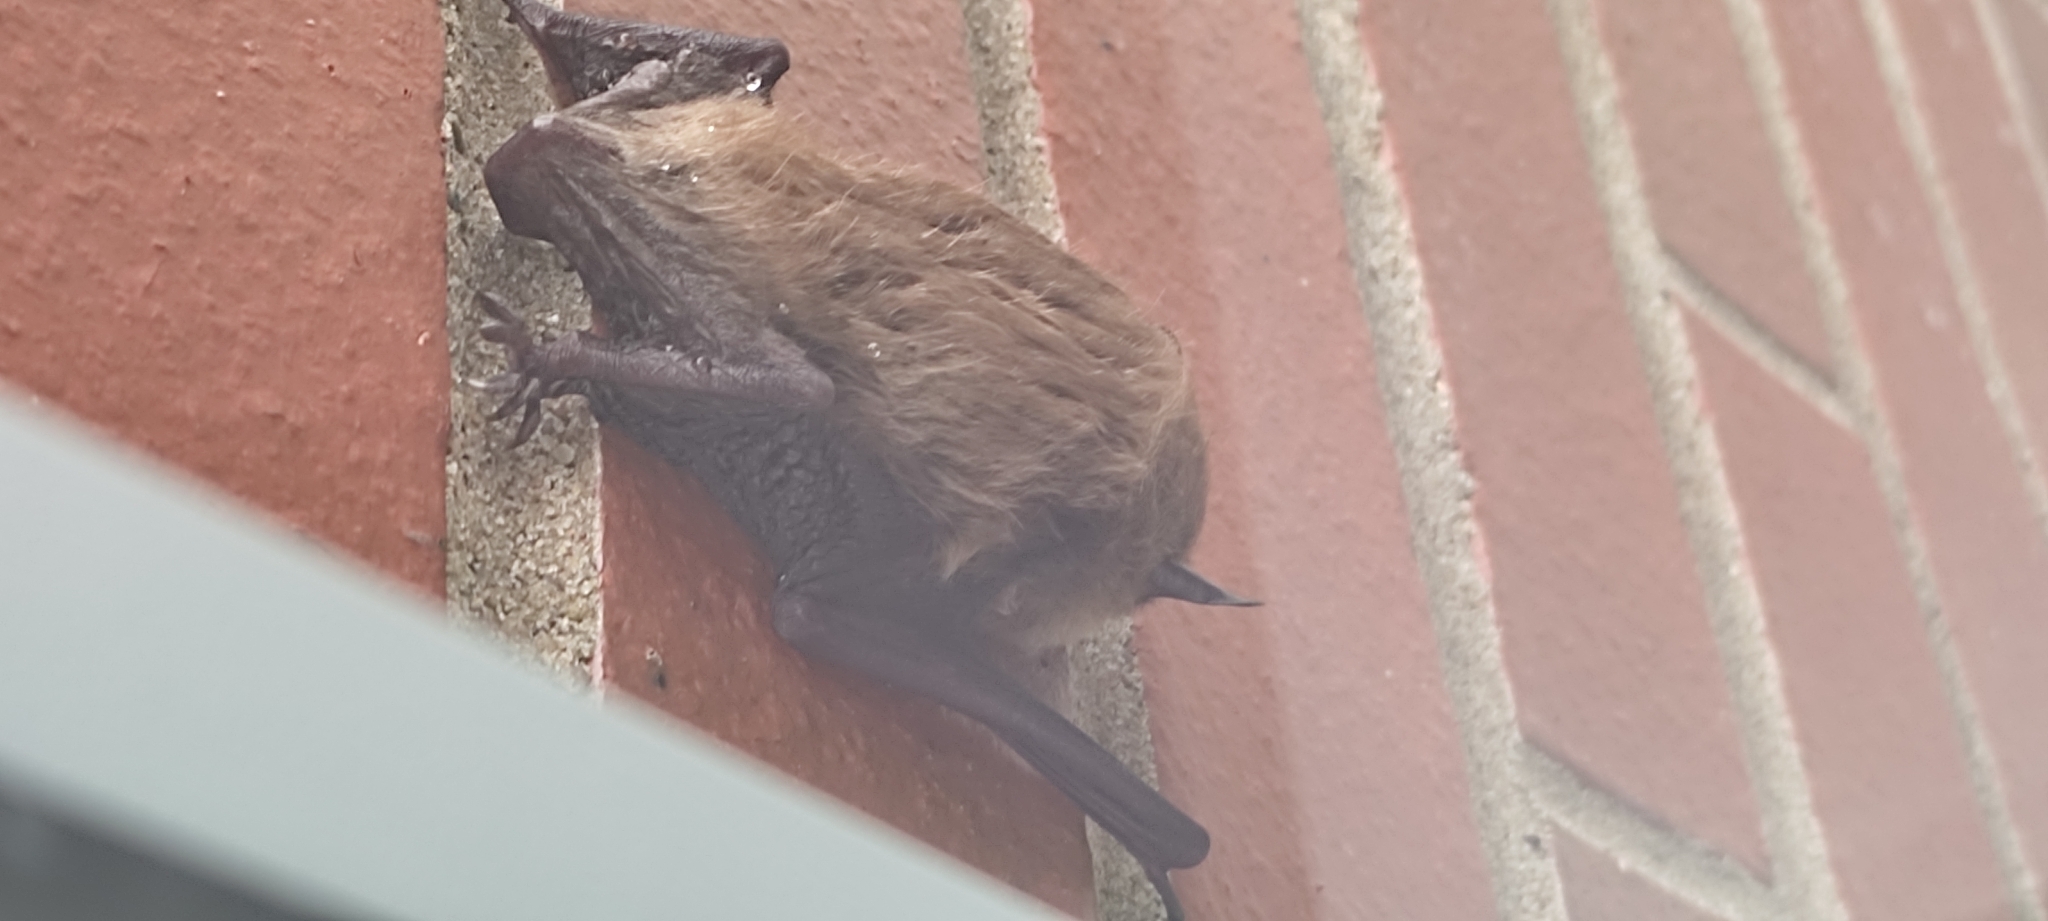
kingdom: Animalia
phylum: Chordata
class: Mammalia
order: Chiroptera
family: Vespertilionidae
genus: Eptesicus
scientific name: Eptesicus fuscus
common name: Big brown bat
